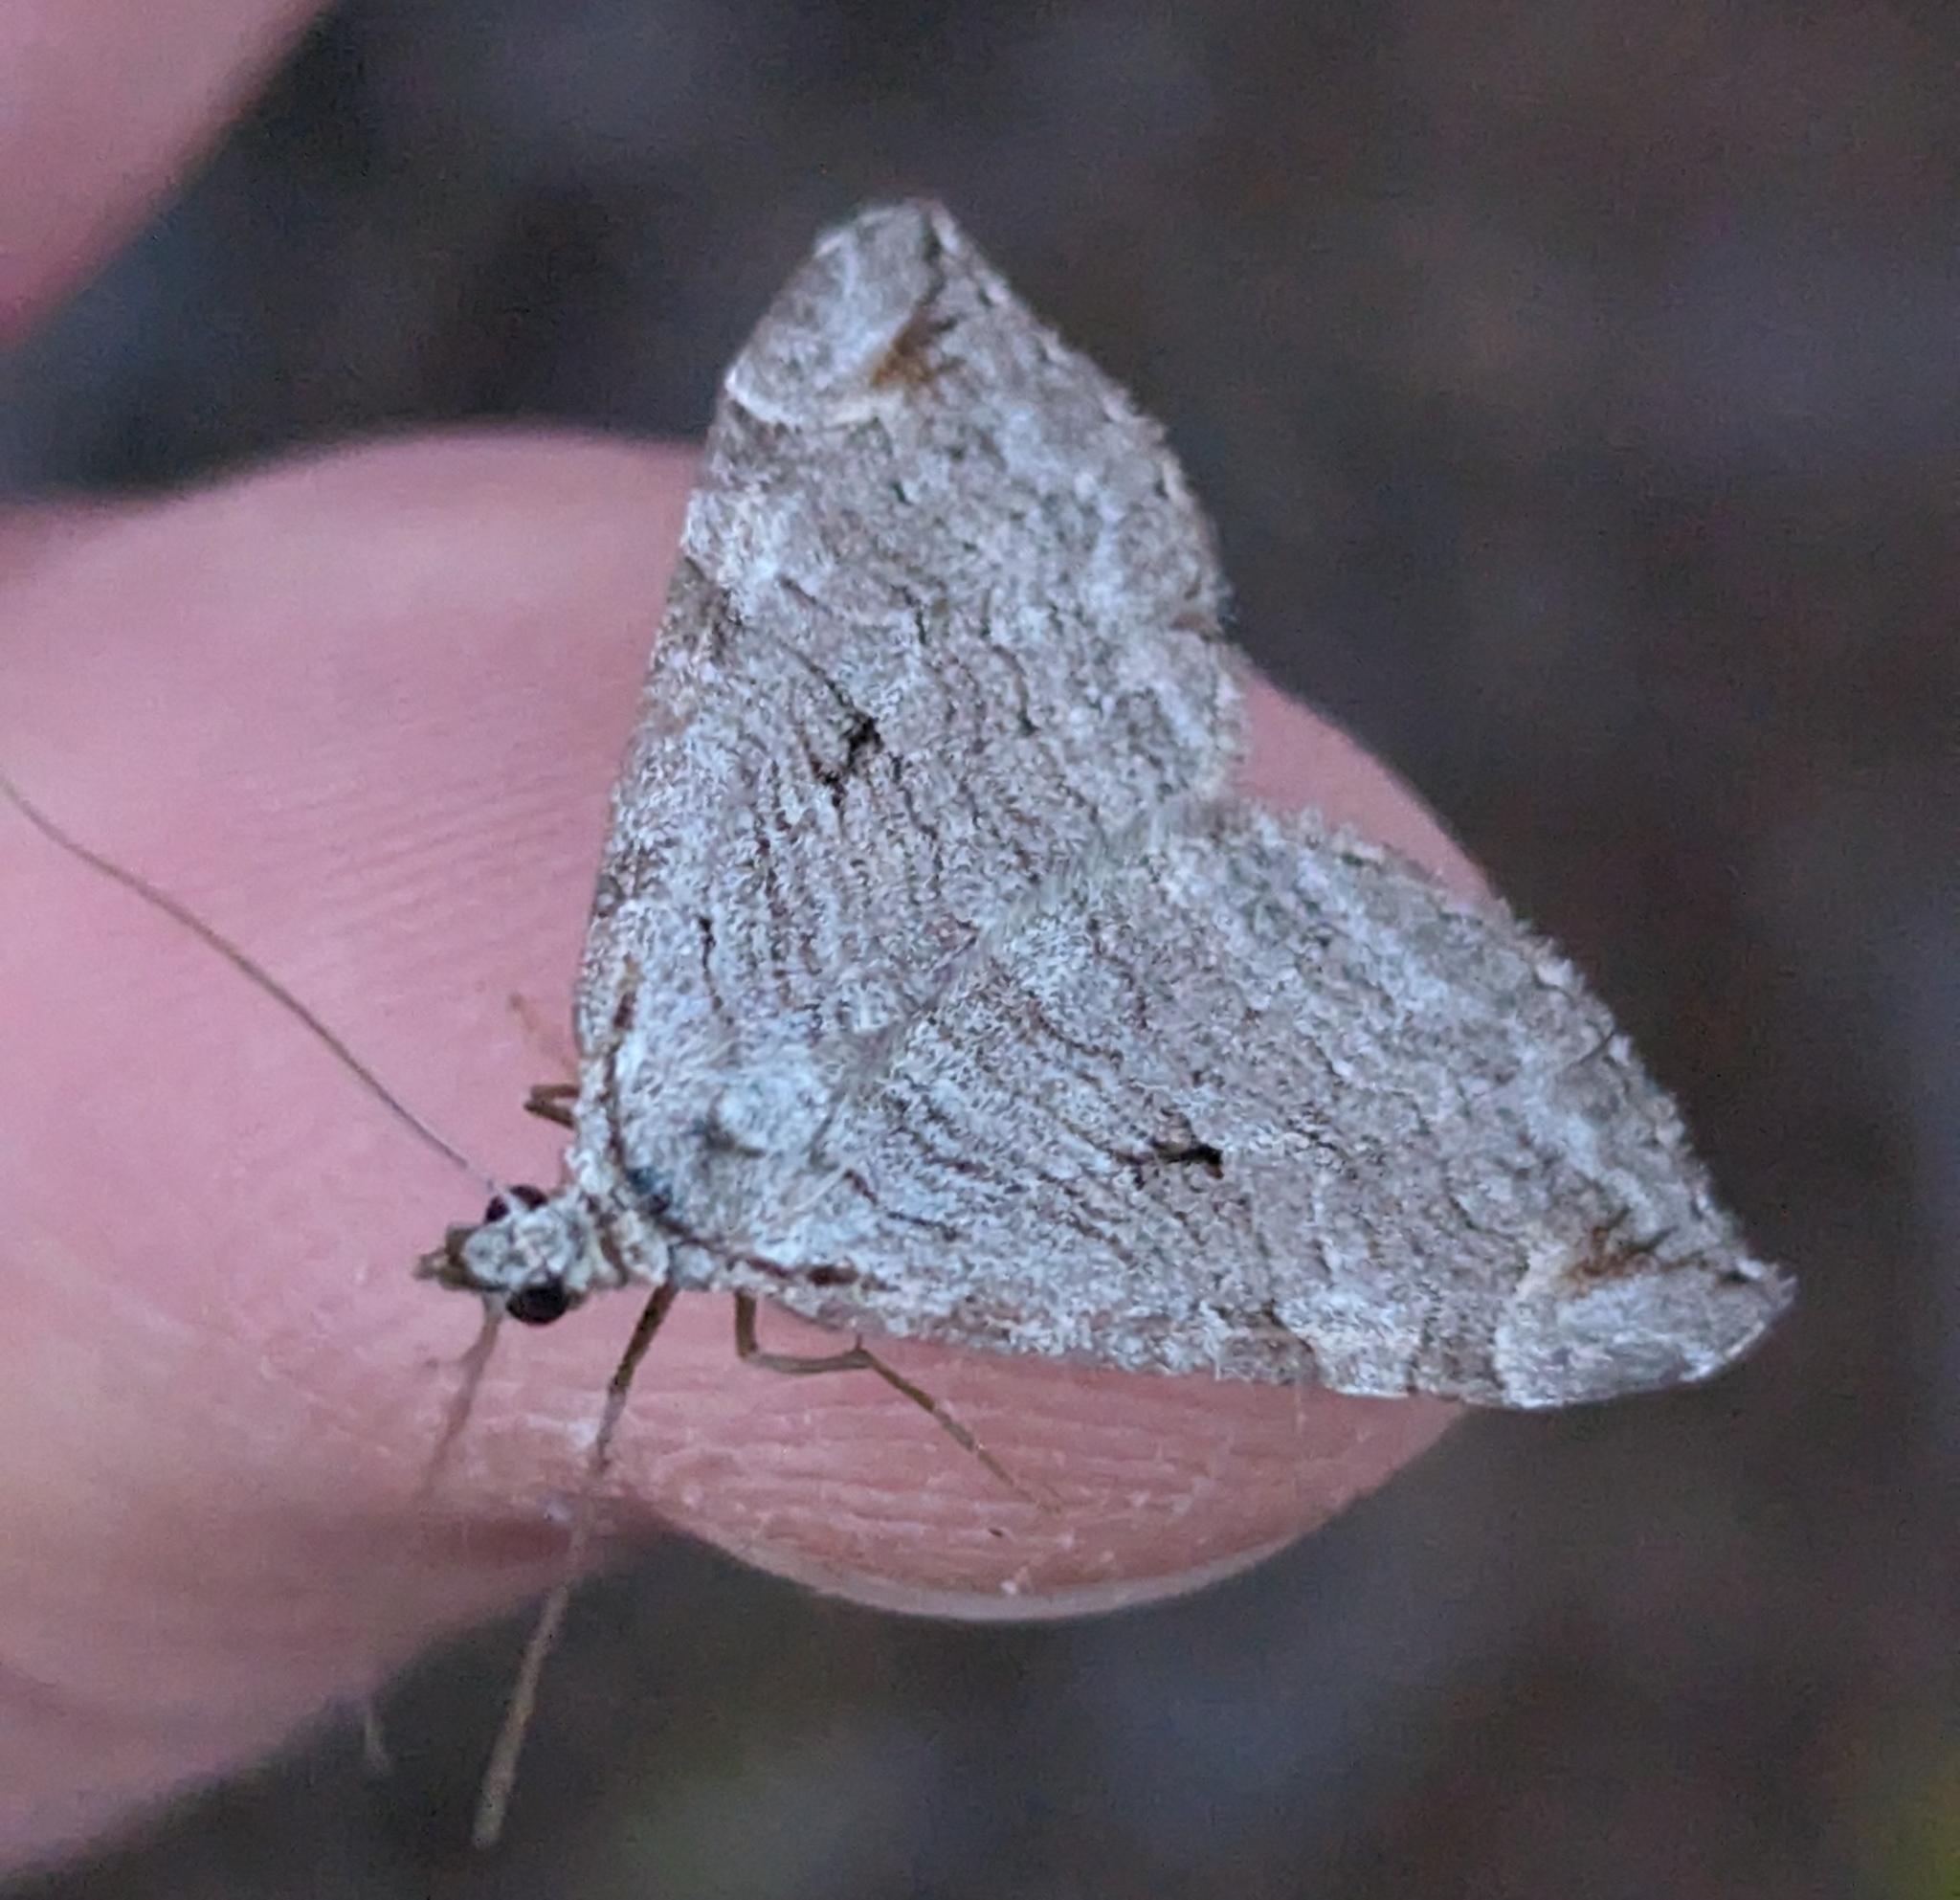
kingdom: Animalia
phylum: Arthropoda
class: Insecta
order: Lepidoptera
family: Geometridae
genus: Aplocera
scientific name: Aplocera plagiata
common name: Treble-bar
